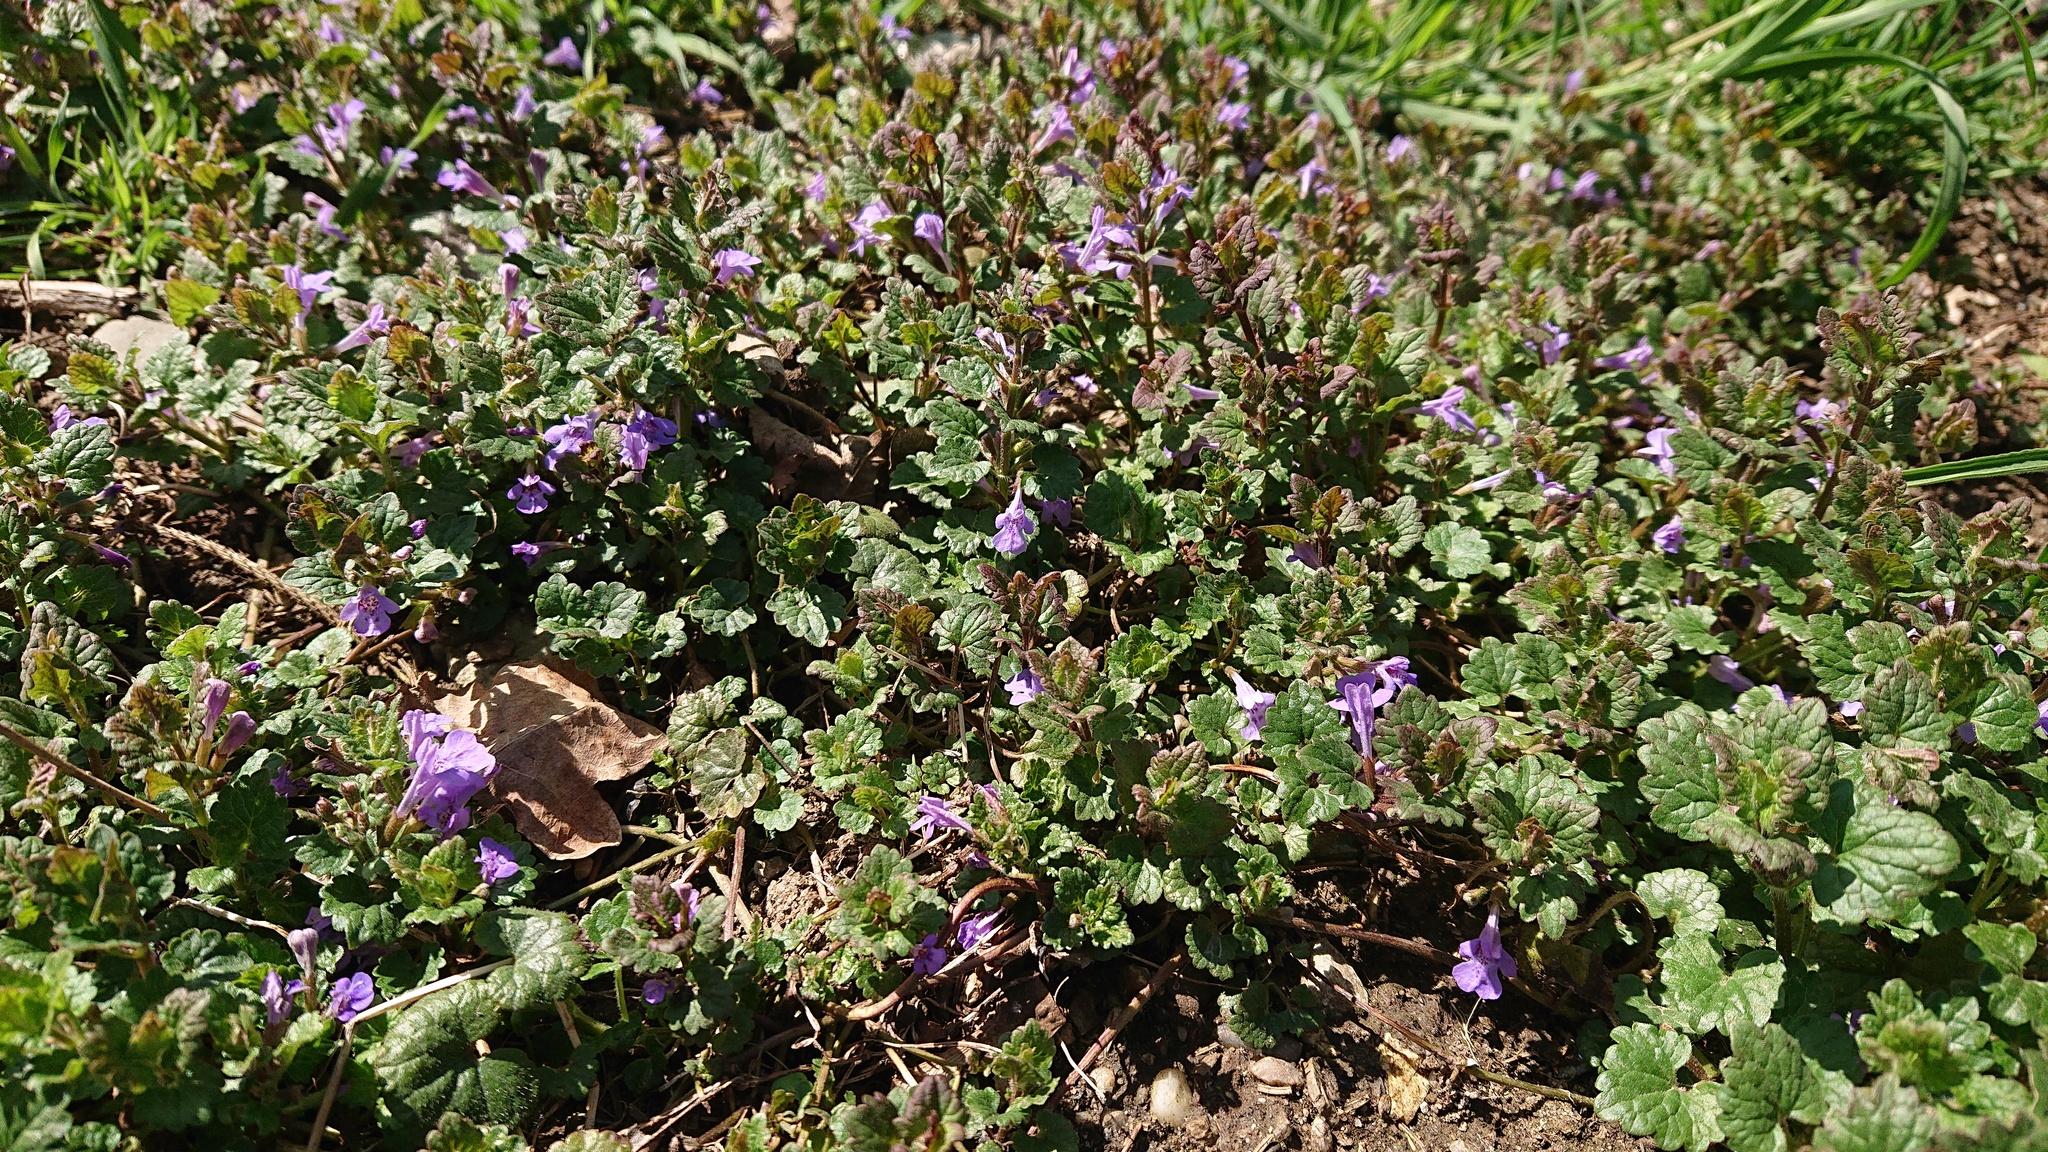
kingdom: Plantae
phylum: Tracheophyta
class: Magnoliopsida
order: Lamiales
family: Lamiaceae
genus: Glechoma
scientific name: Glechoma hederacea
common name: Ground ivy
